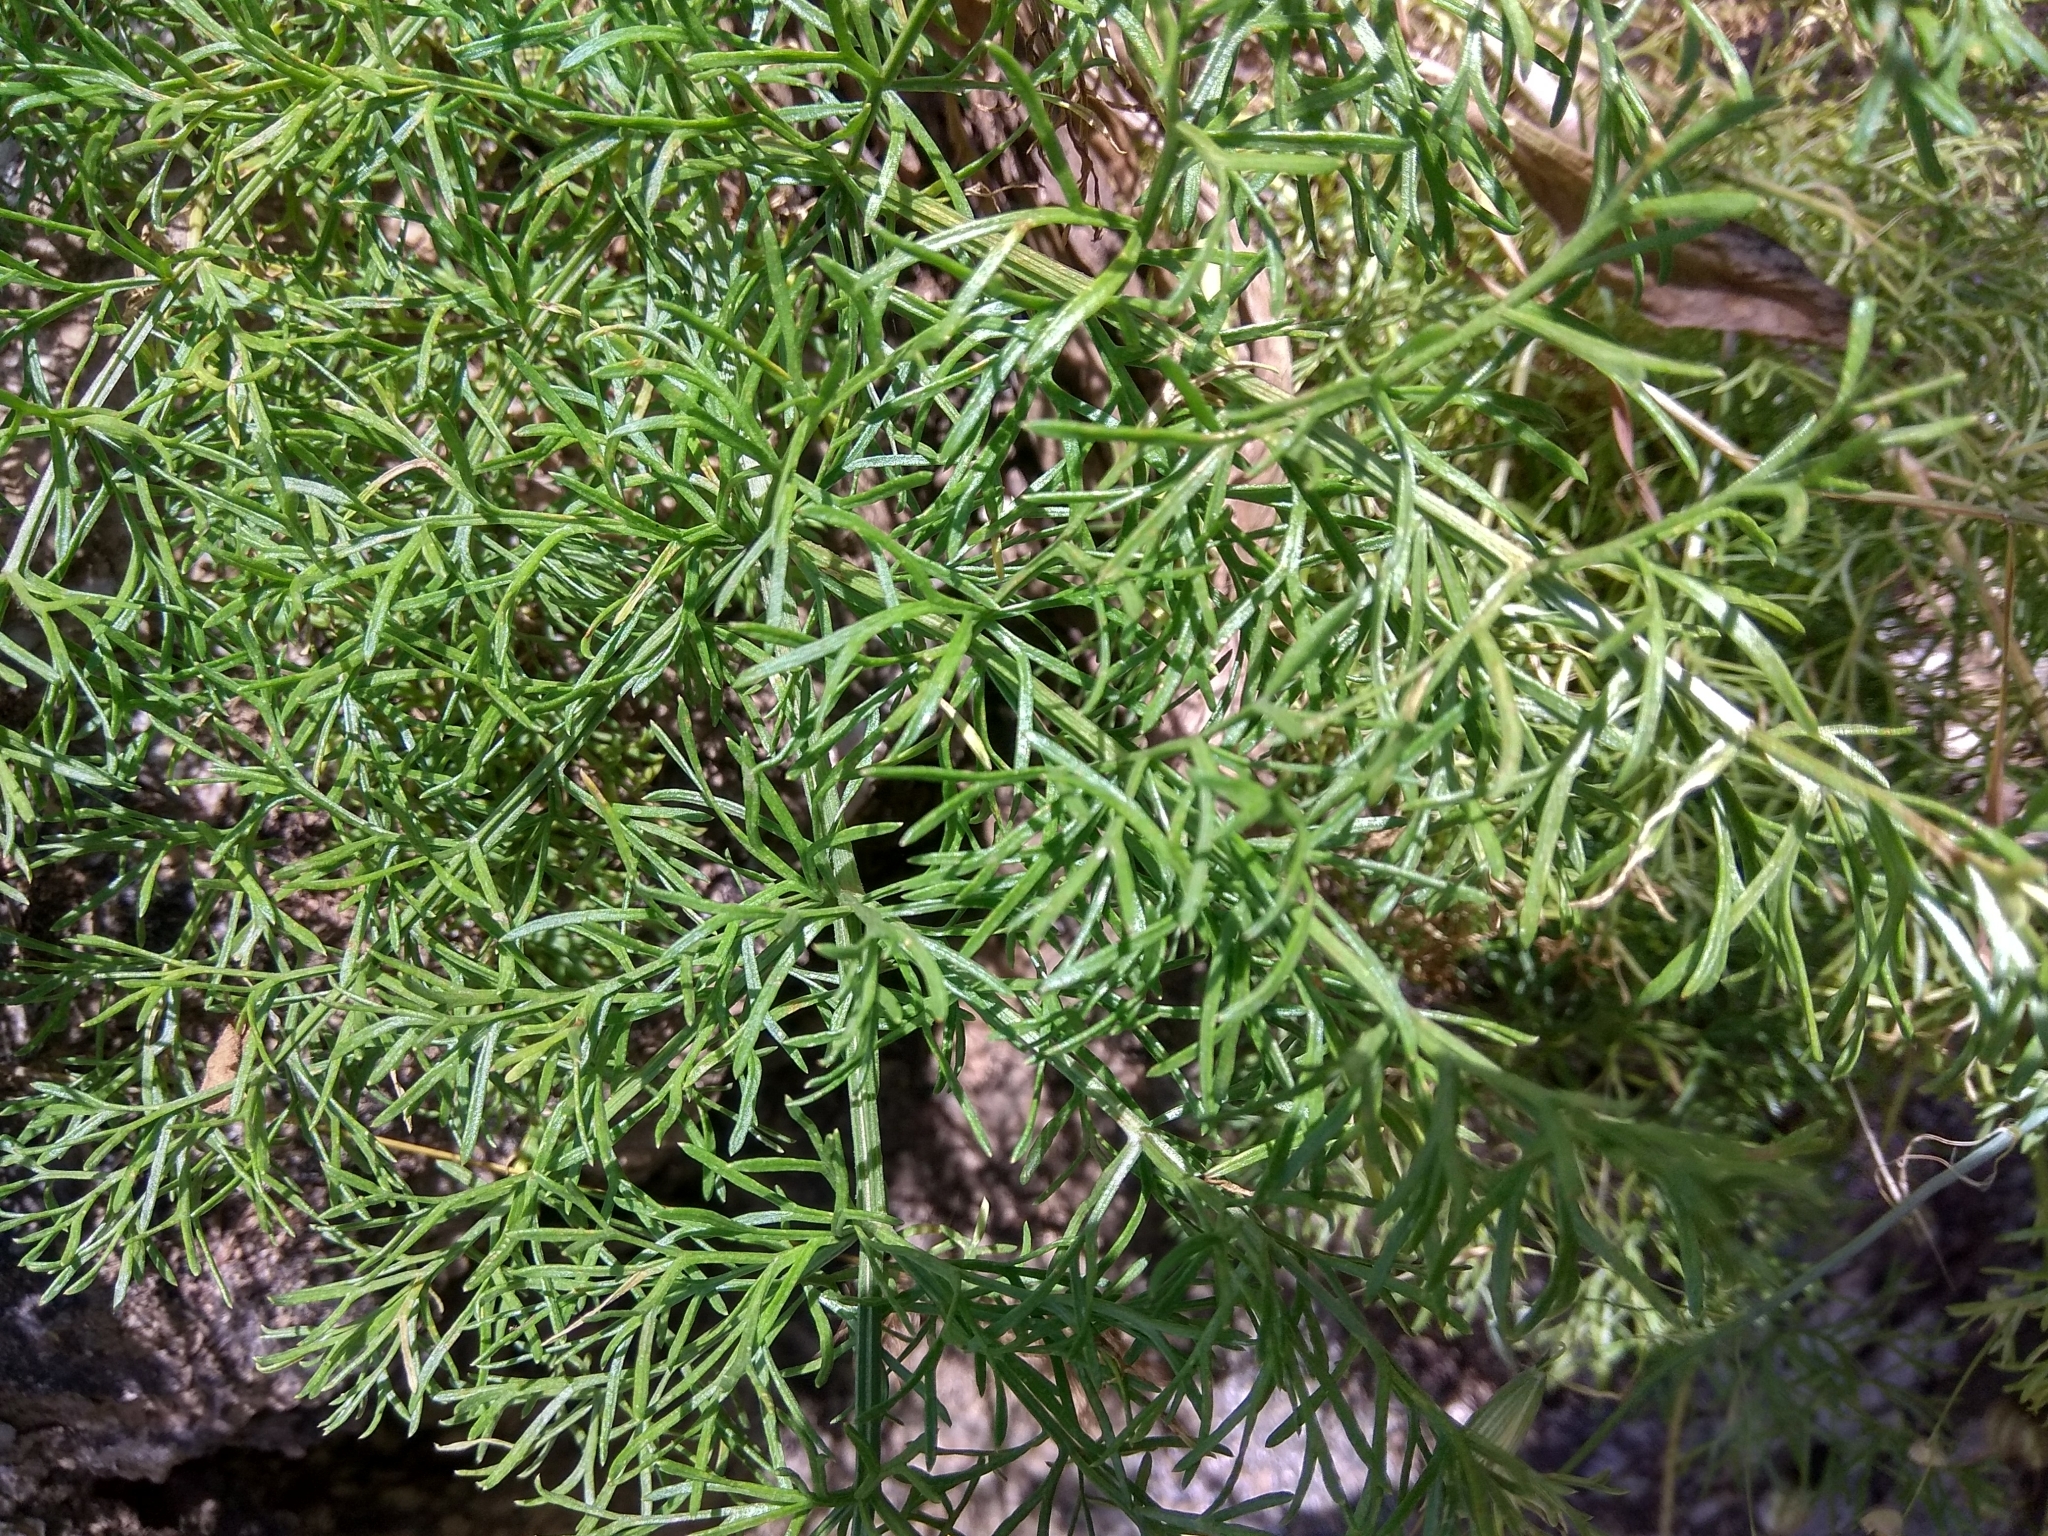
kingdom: Plantae
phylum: Tracheophyta
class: Magnoliopsida
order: Apiales
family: Apiaceae
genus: Prangos
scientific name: Prangos bucharica
